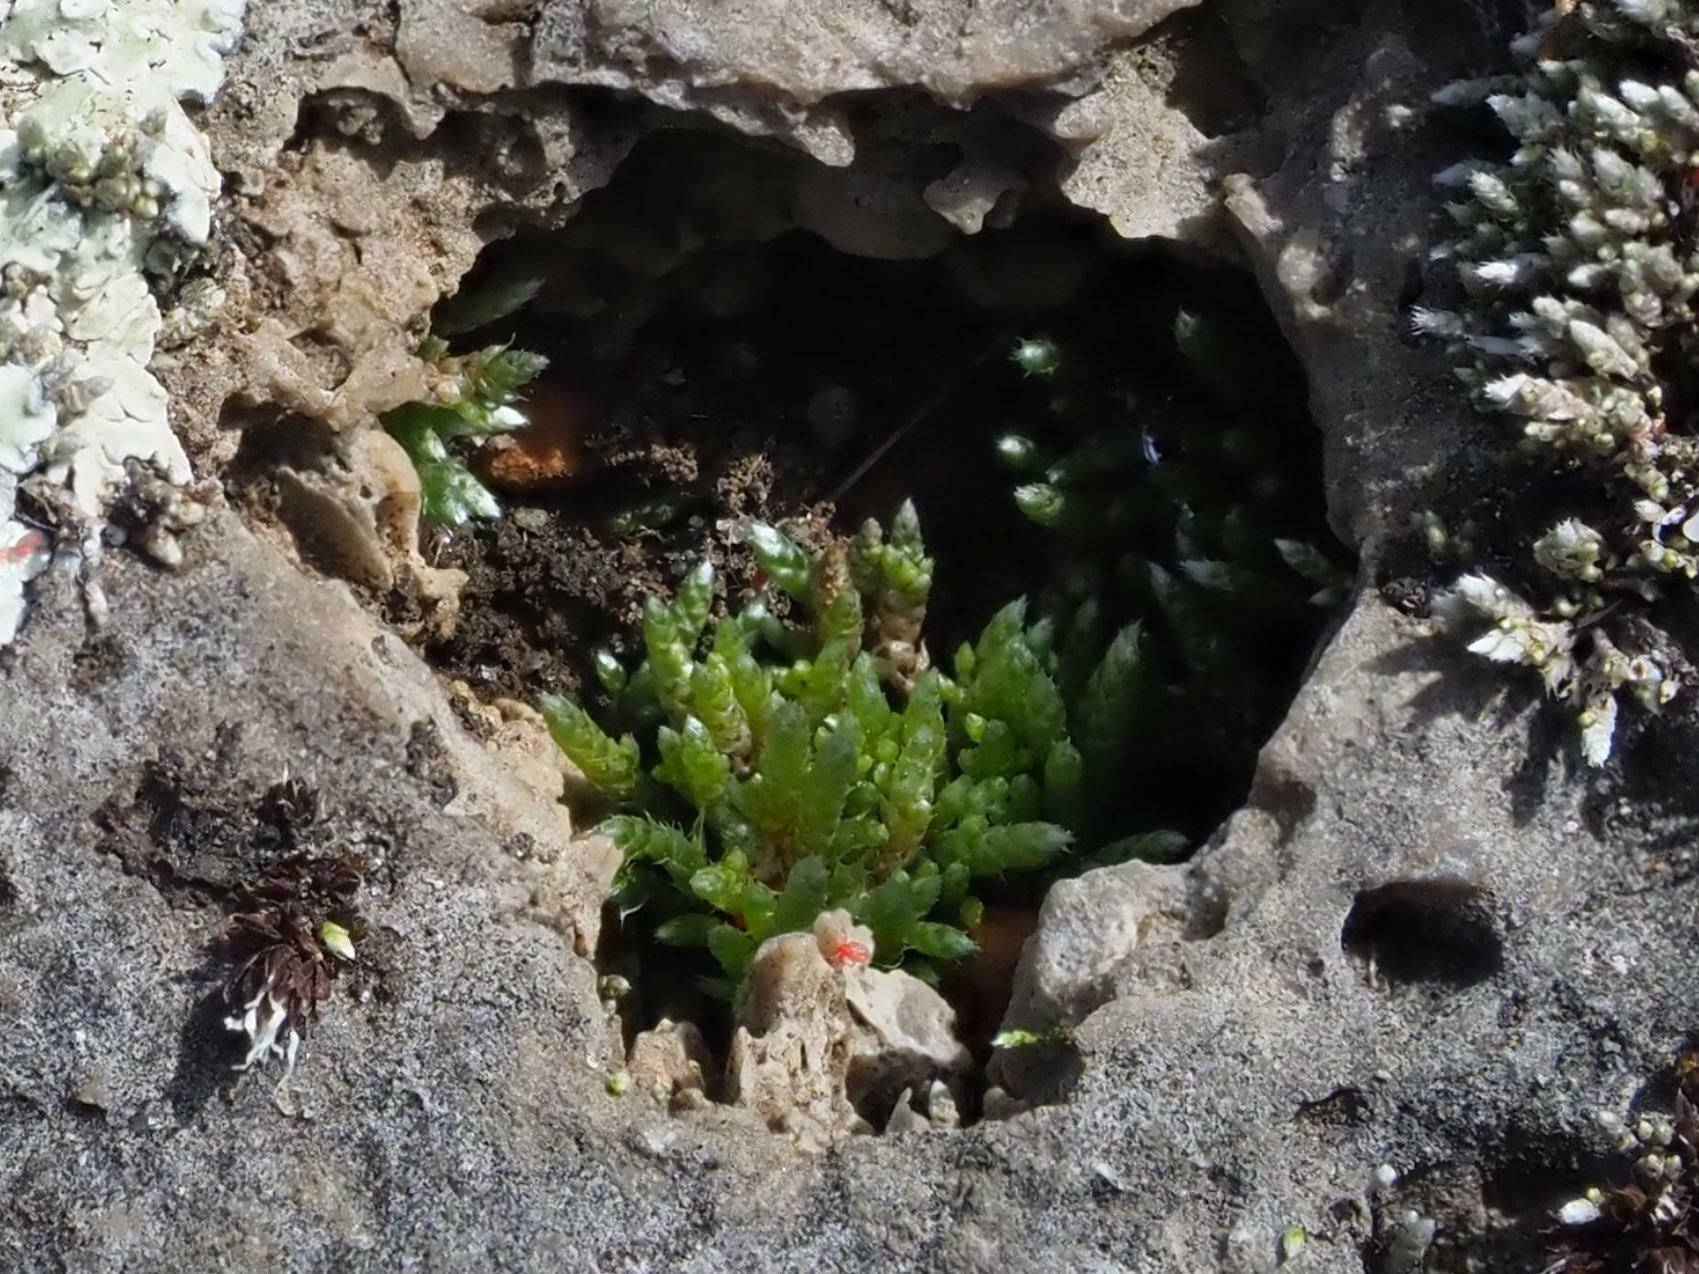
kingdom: Plantae
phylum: Bryophyta
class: Bryopsida
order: Bryales
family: Bryaceae
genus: Bryum
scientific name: Bryum argenteum
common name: Silver-moss
